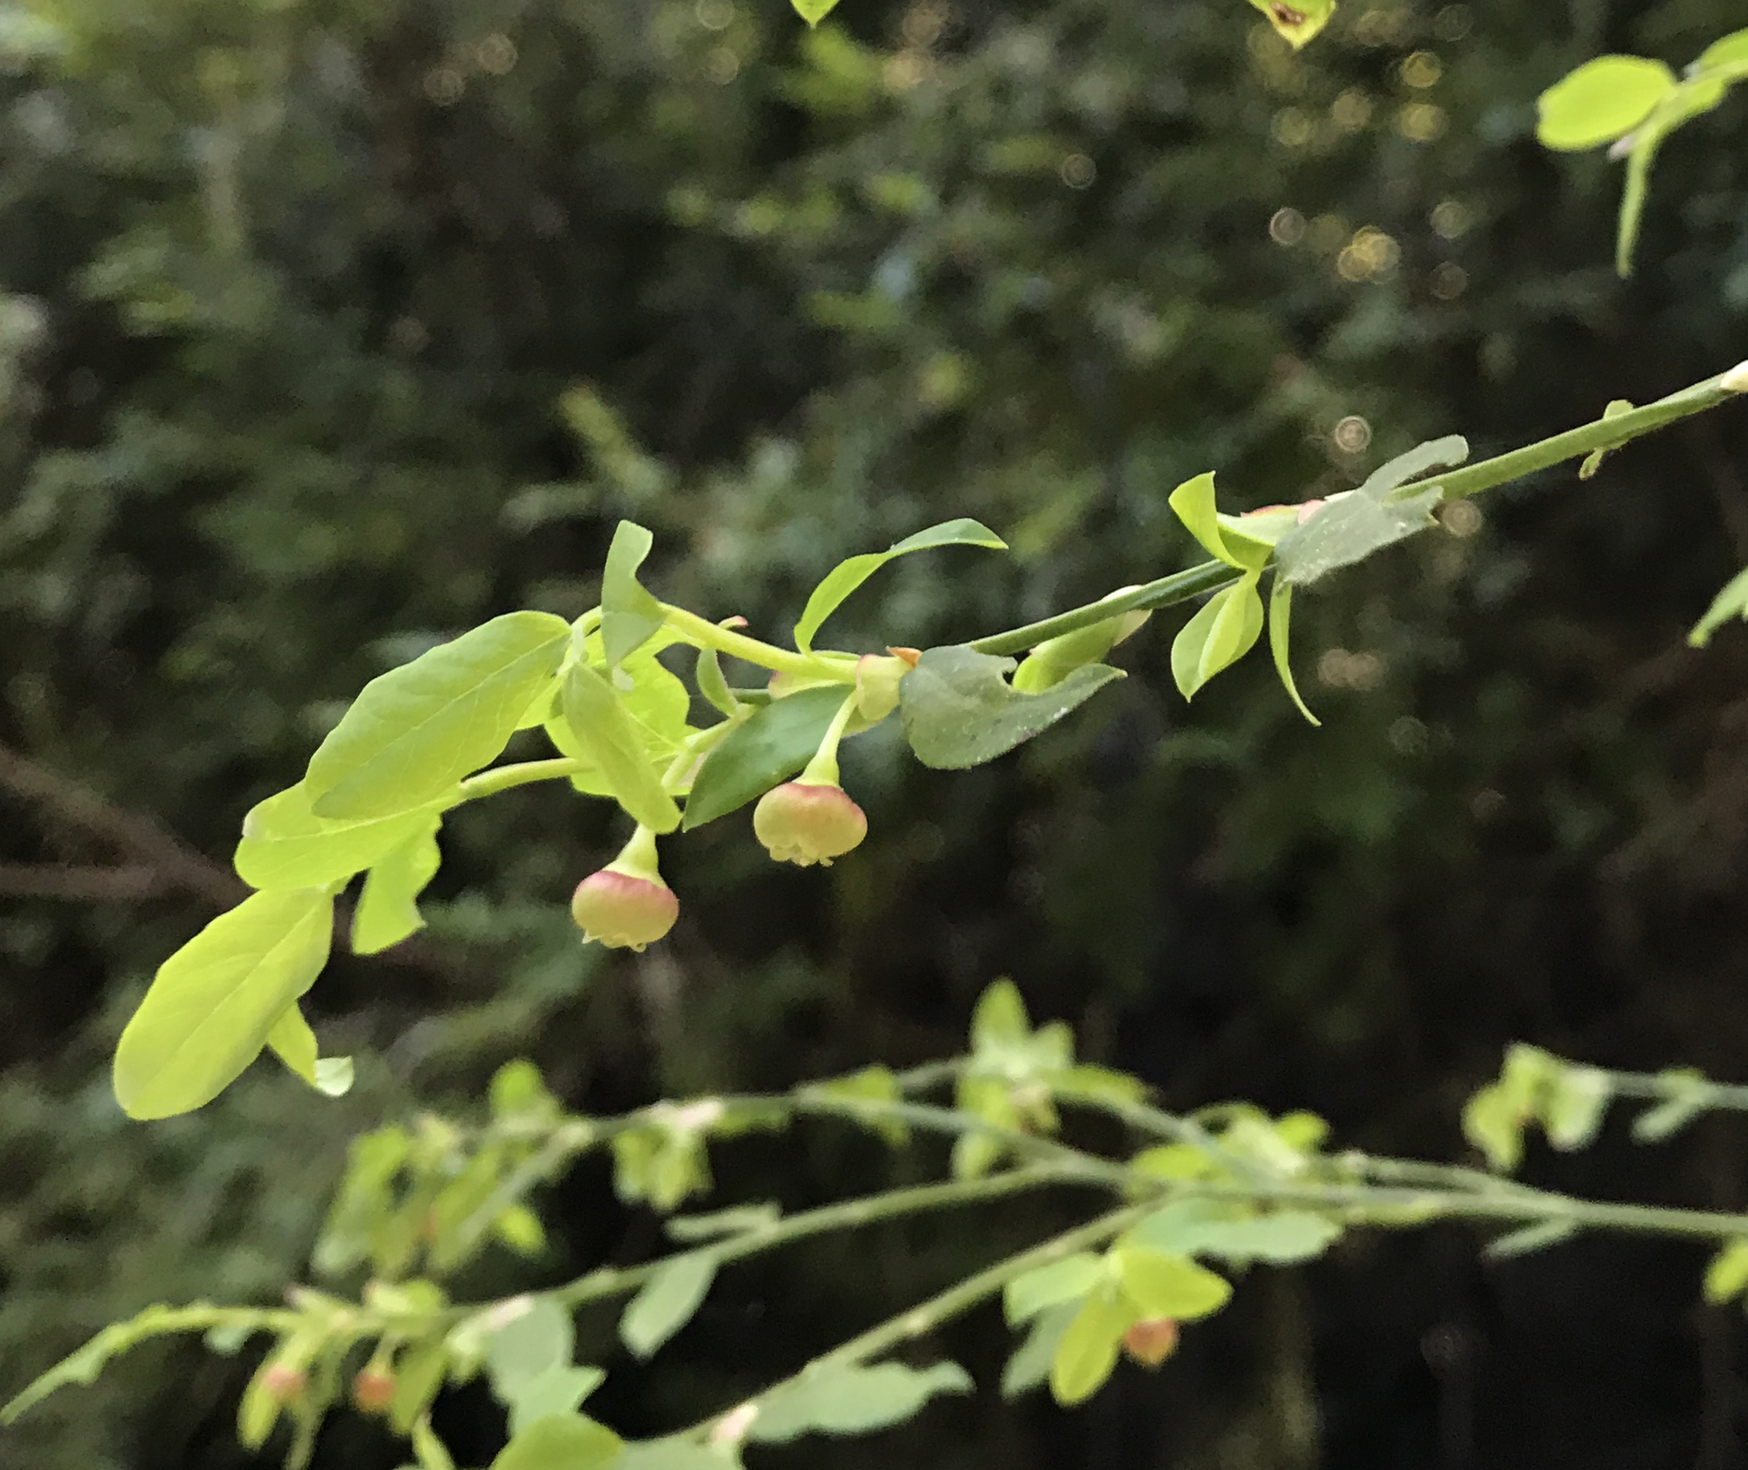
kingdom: Plantae
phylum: Tracheophyta
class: Magnoliopsida
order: Ericales
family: Ericaceae
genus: Vaccinium
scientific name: Vaccinium parvifolium
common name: Red-huckleberry
